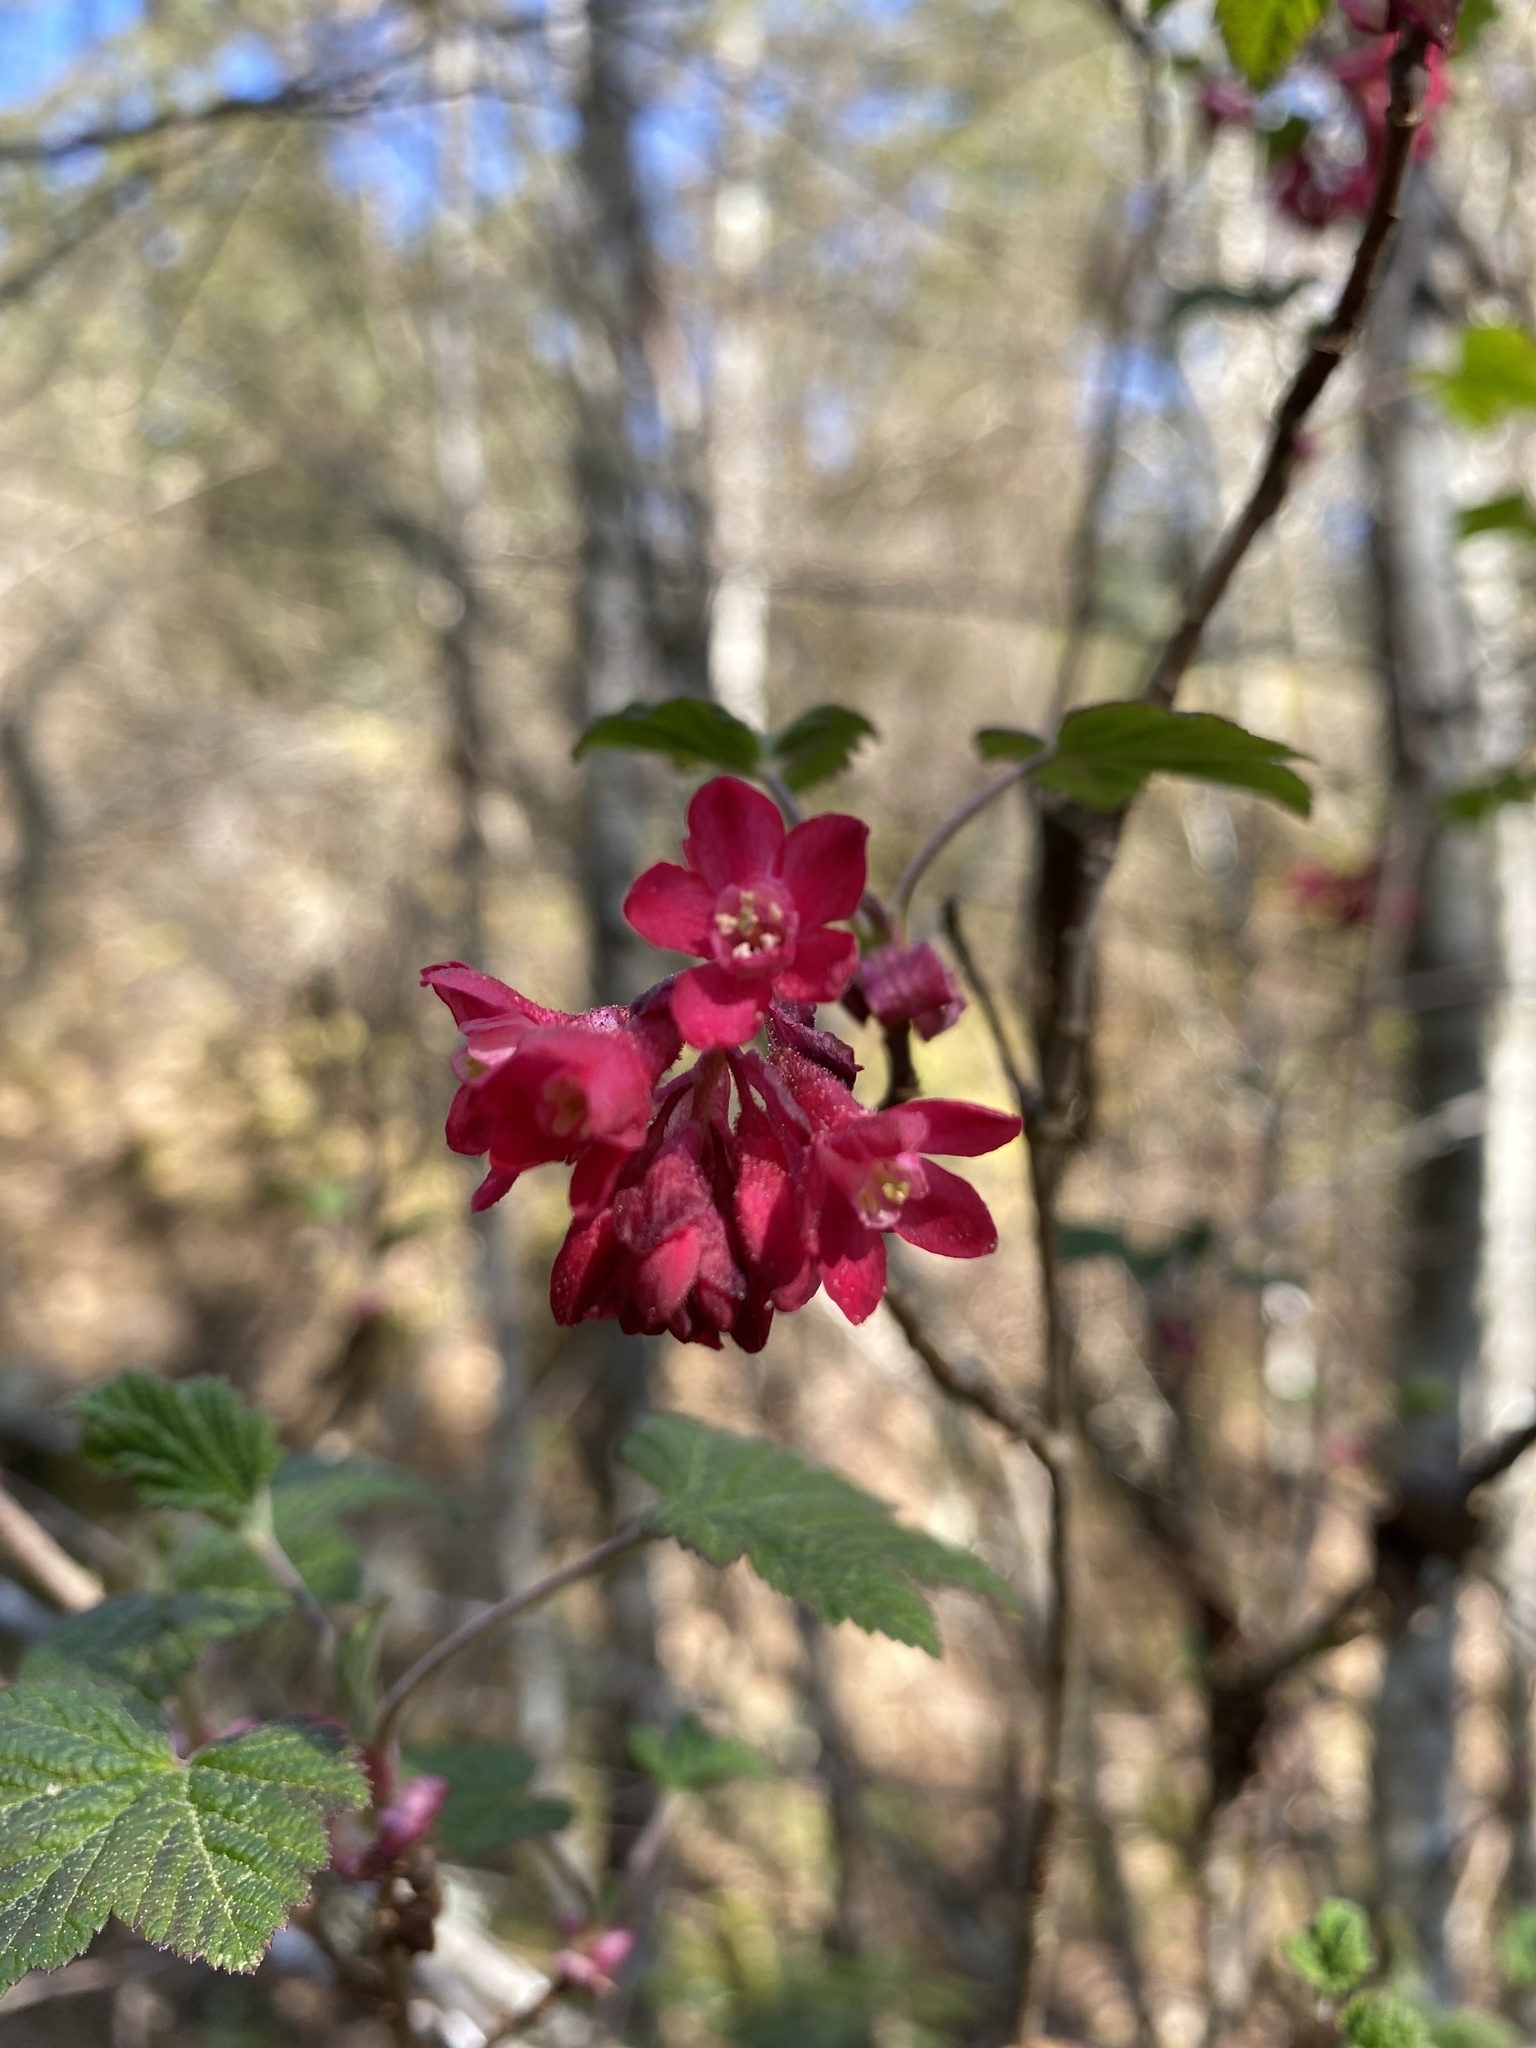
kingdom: Plantae
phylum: Tracheophyta
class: Magnoliopsida
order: Saxifragales
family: Grossulariaceae
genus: Ribes
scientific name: Ribes sanguineum
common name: Flowering currant
